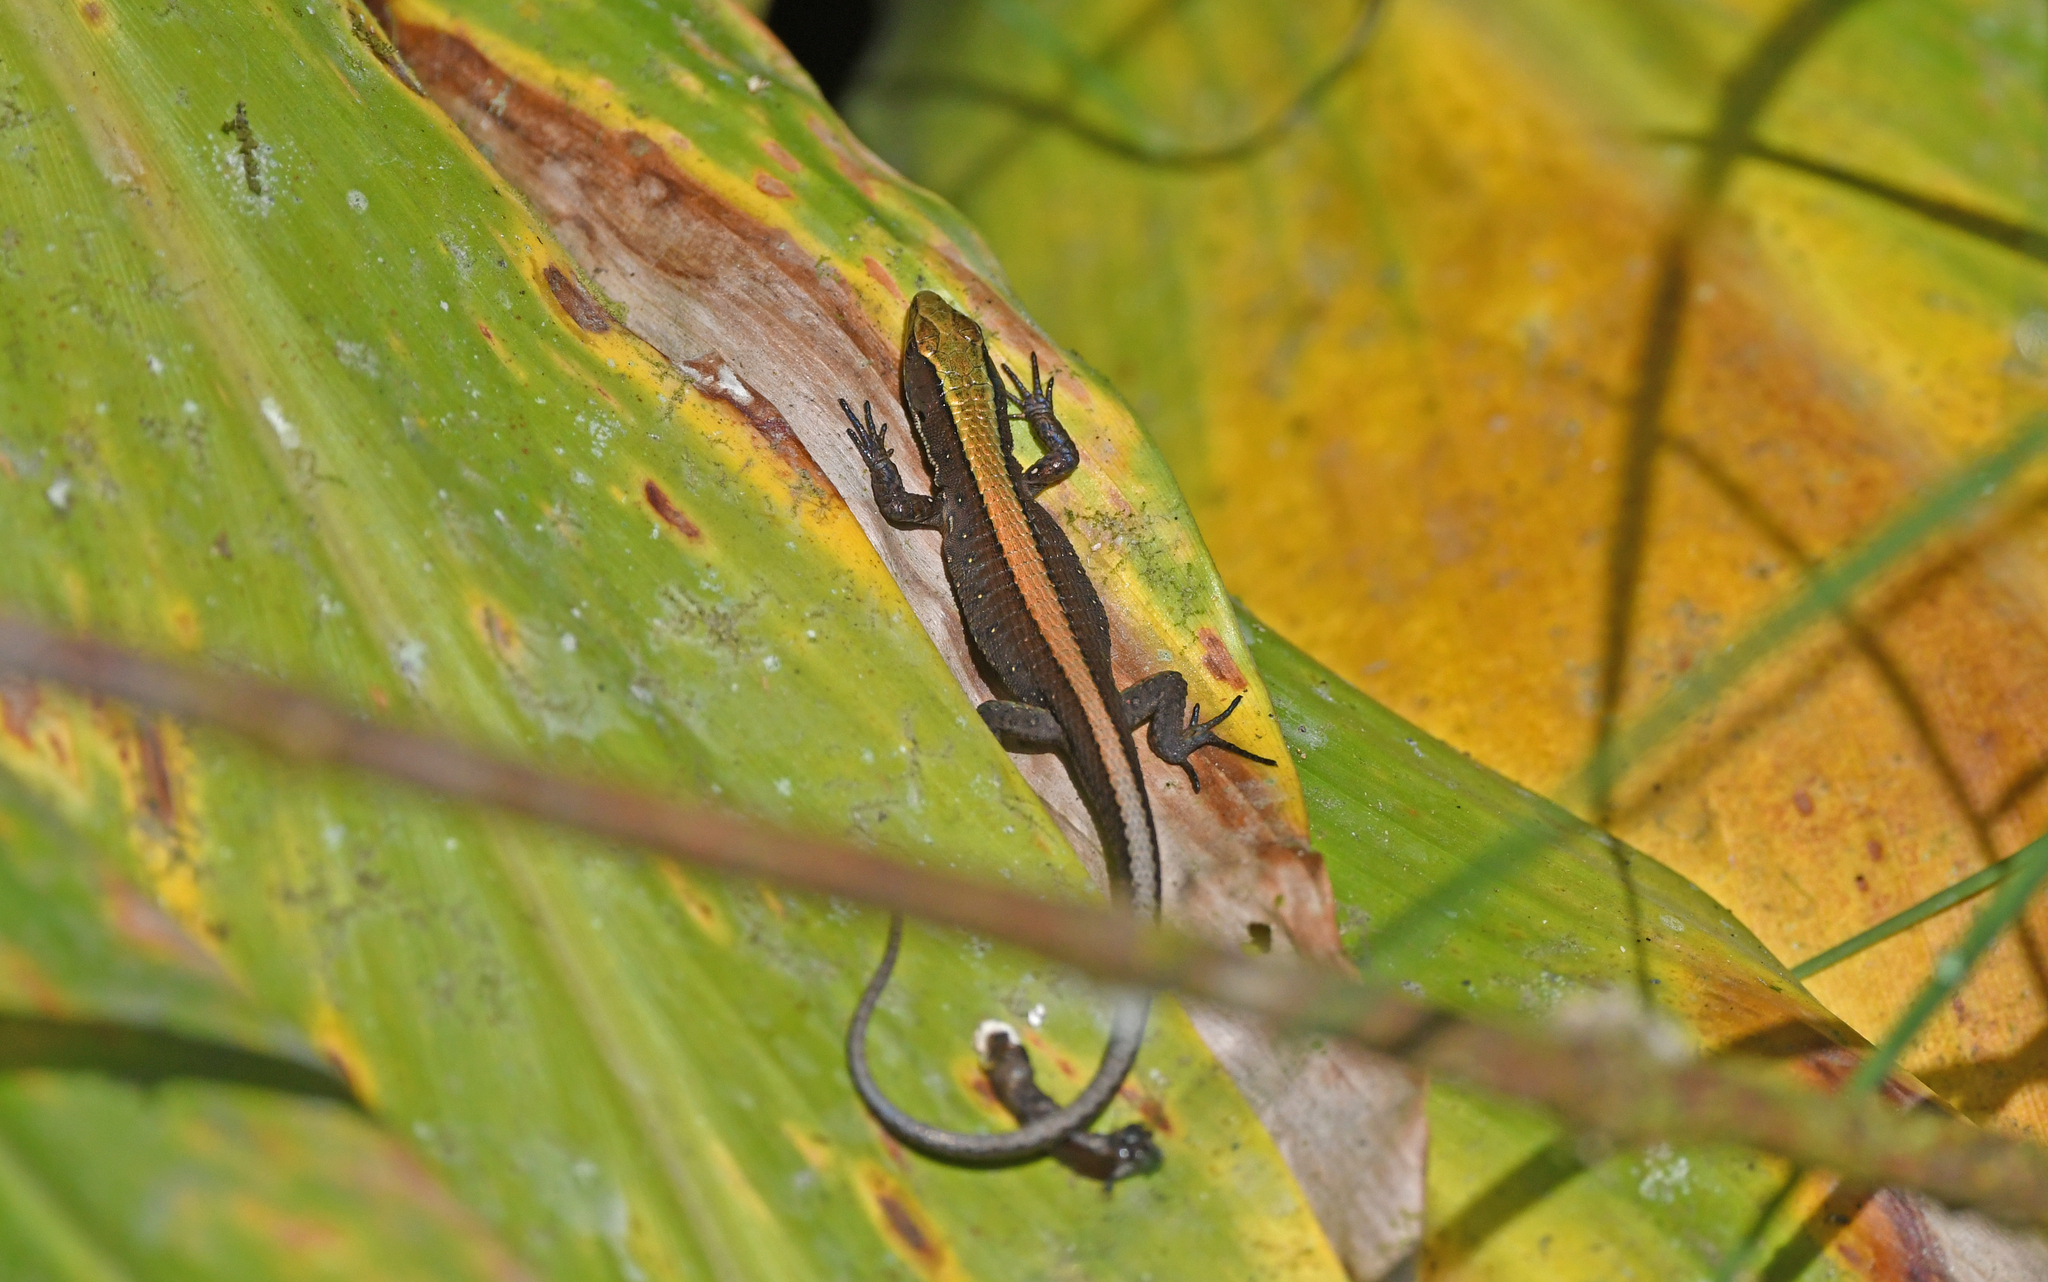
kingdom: Animalia
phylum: Chordata
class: Squamata
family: Gymnophthalmidae
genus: Pholidobolus
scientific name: Pholidobolus vertebralis
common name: Brown prionodactylus
